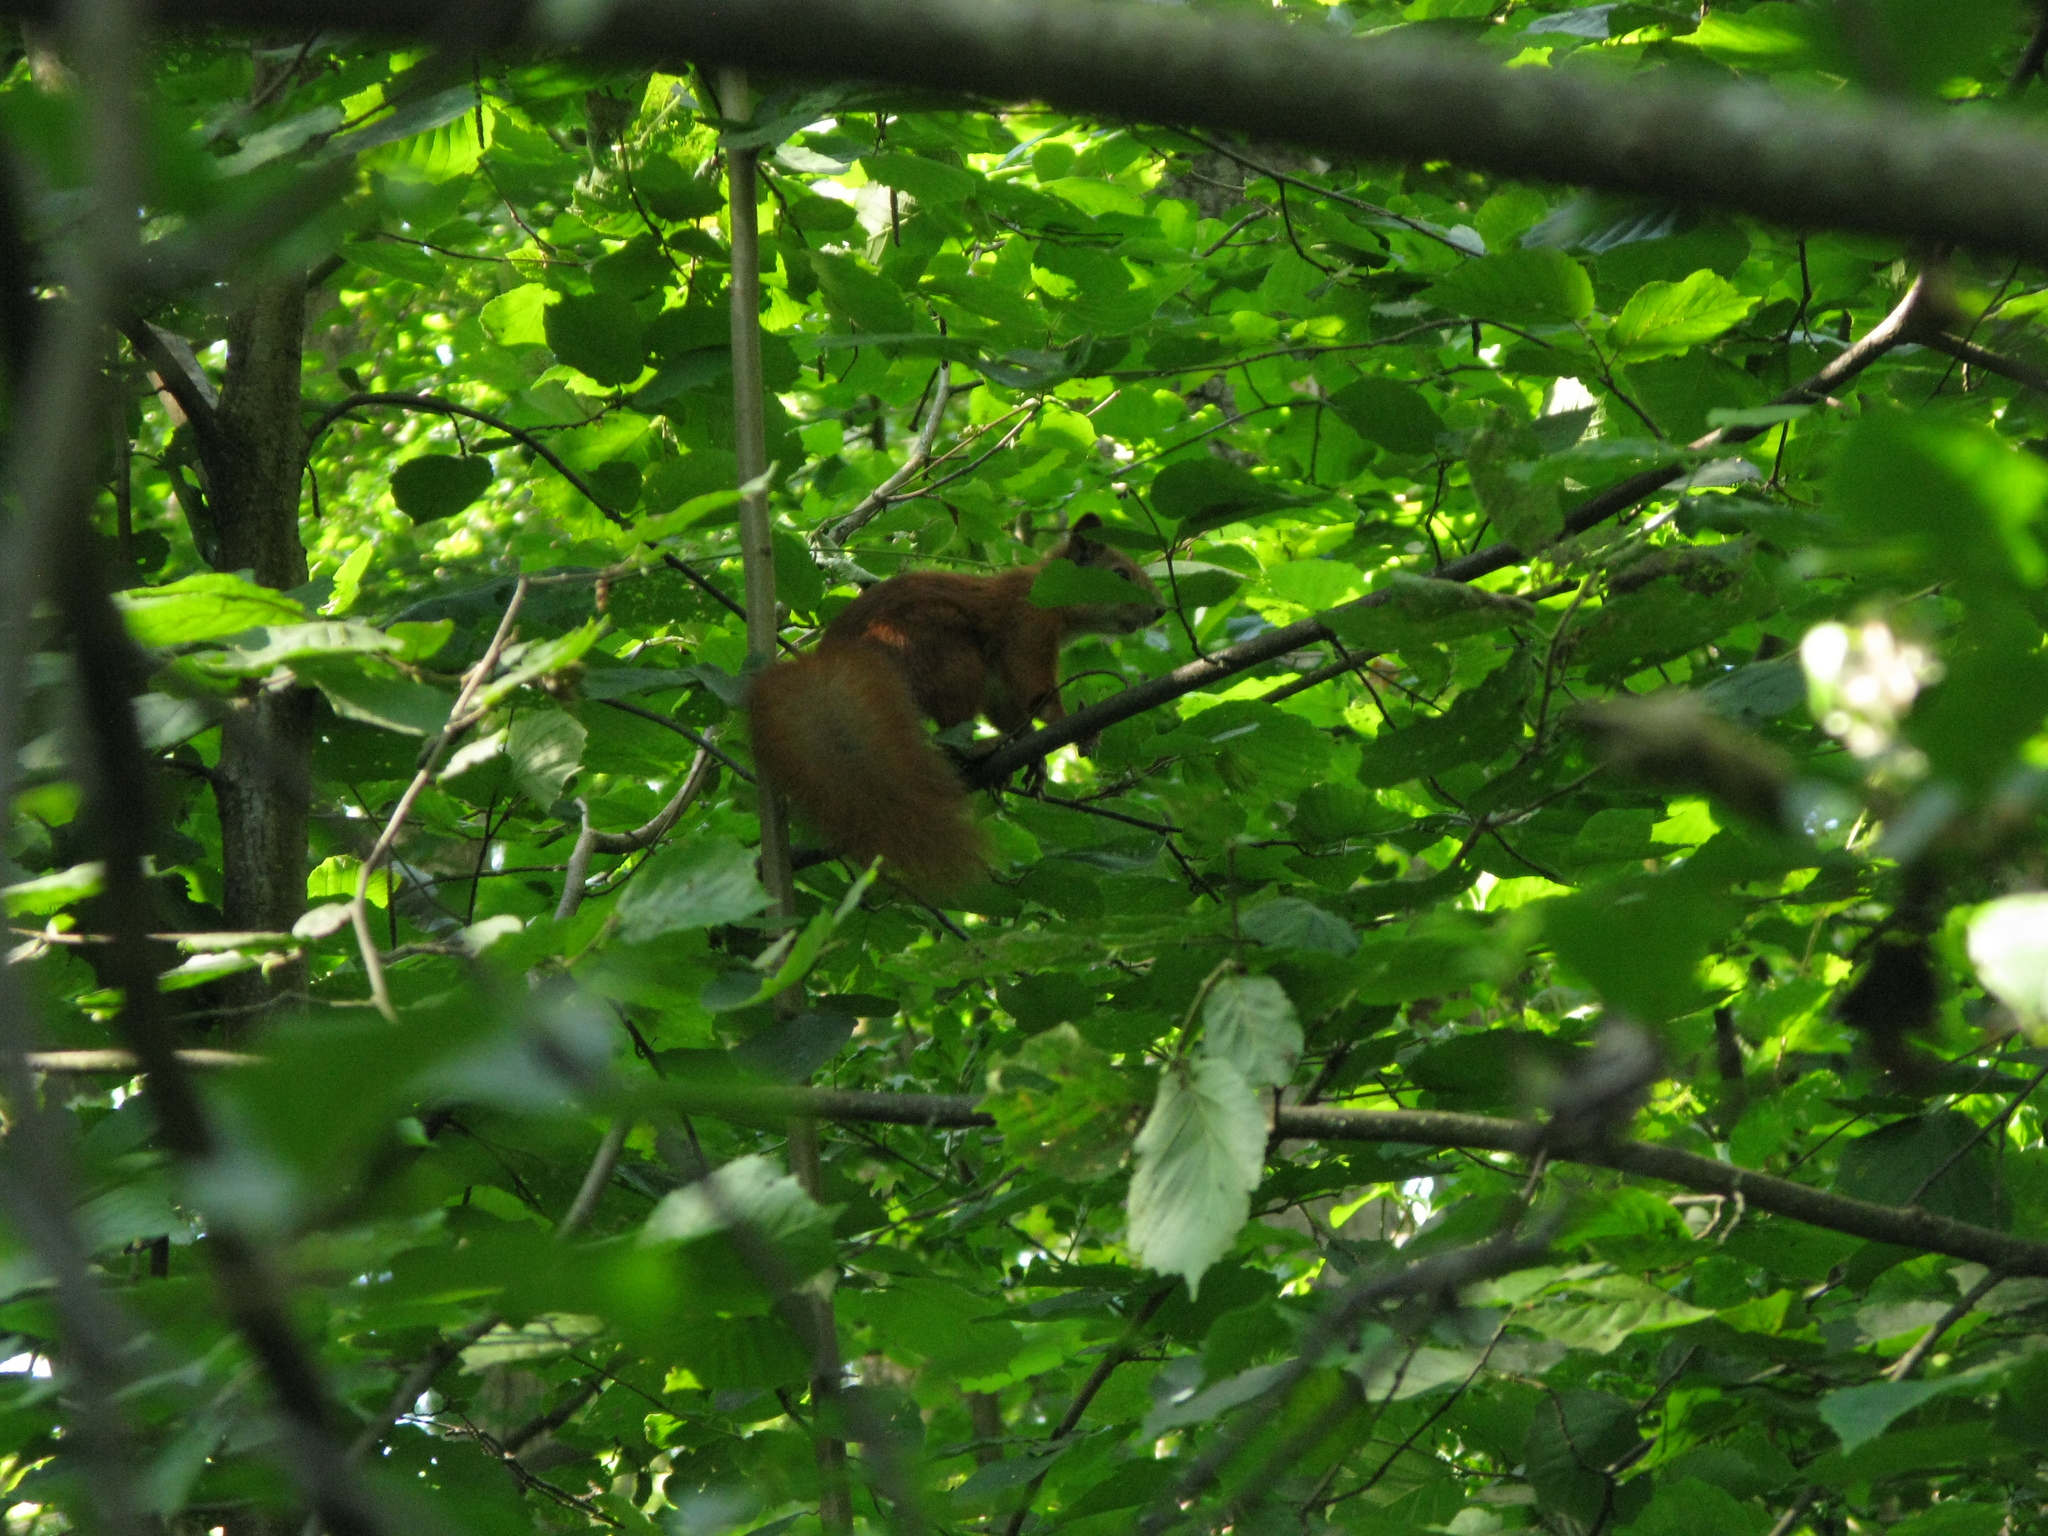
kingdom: Animalia
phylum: Chordata
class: Mammalia
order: Rodentia
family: Sciuridae
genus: Sciurus
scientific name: Sciurus vulgaris
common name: Eurasian red squirrel
